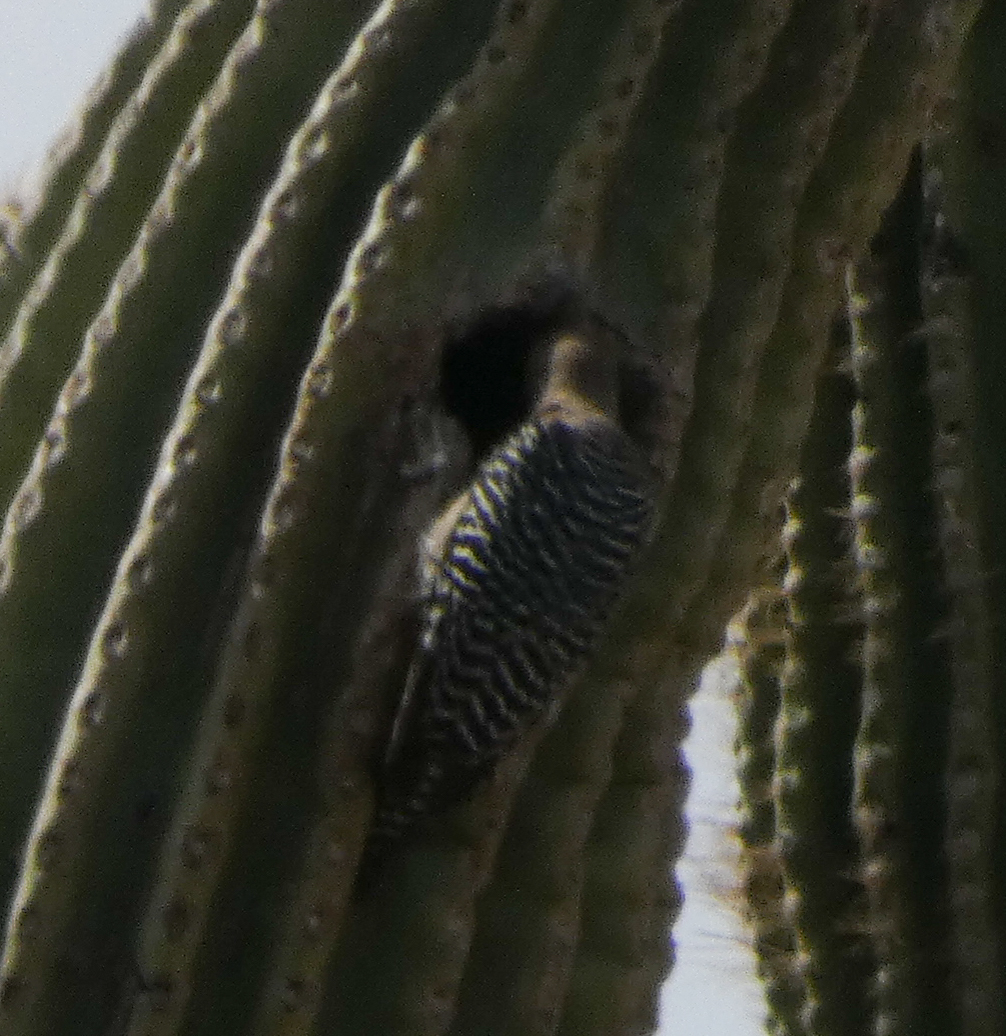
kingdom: Animalia
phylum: Chordata
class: Aves
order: Piciformes
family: Picidae
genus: Melanerpes
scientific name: Melanerpes uropygialis
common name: Gila woodpecker
